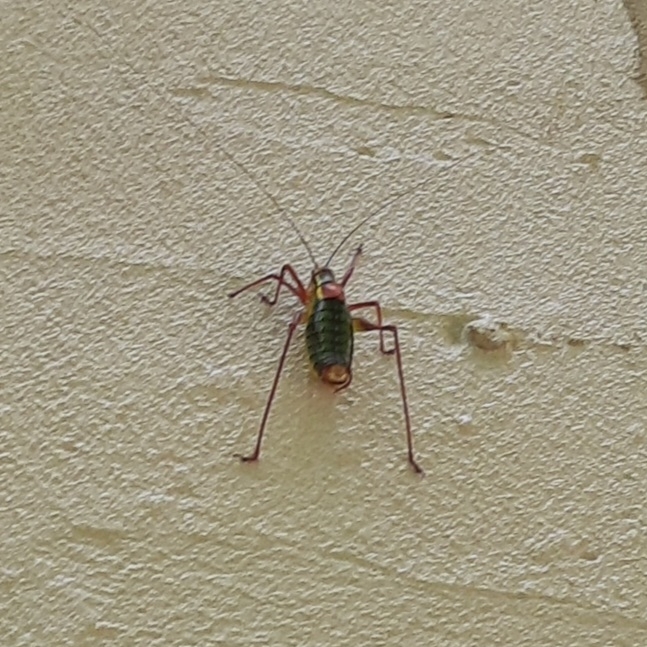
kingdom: Animalia
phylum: Arthropoda
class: Insecta
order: Orthoptera
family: Tettigoniidae
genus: Barbitistes
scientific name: Barbitistes serricauda
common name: Saw-tailed bush-cricket
